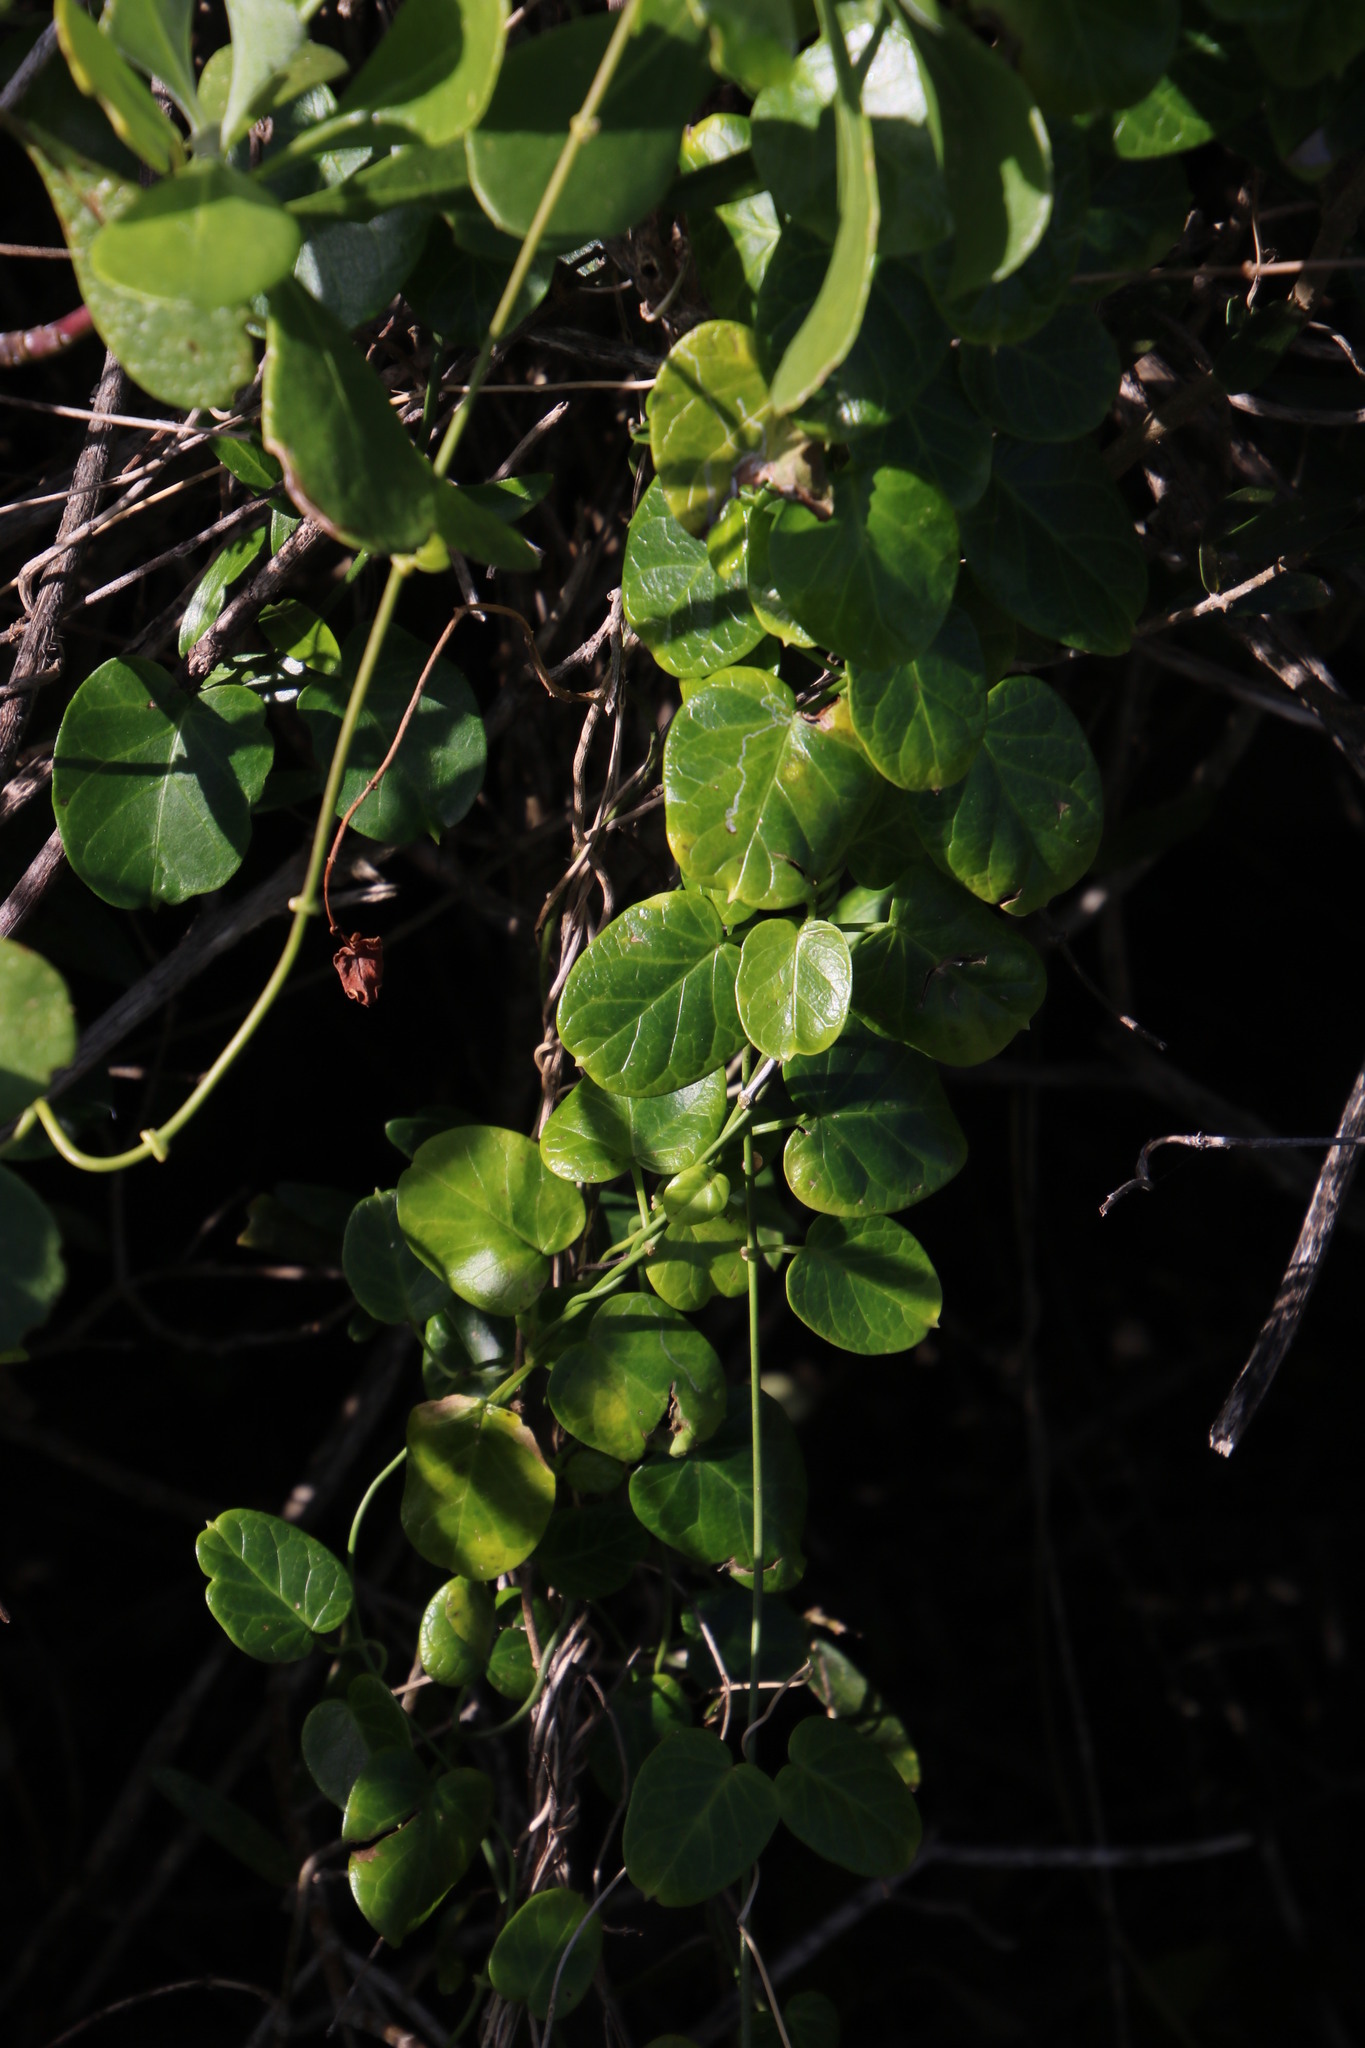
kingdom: Plantae
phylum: Tracheophyta
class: Magnoliopsida
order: Gentianales
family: Apocynaceae
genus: Cynanchum
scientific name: Cynanchum obtusifolium
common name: Monkey-rope
